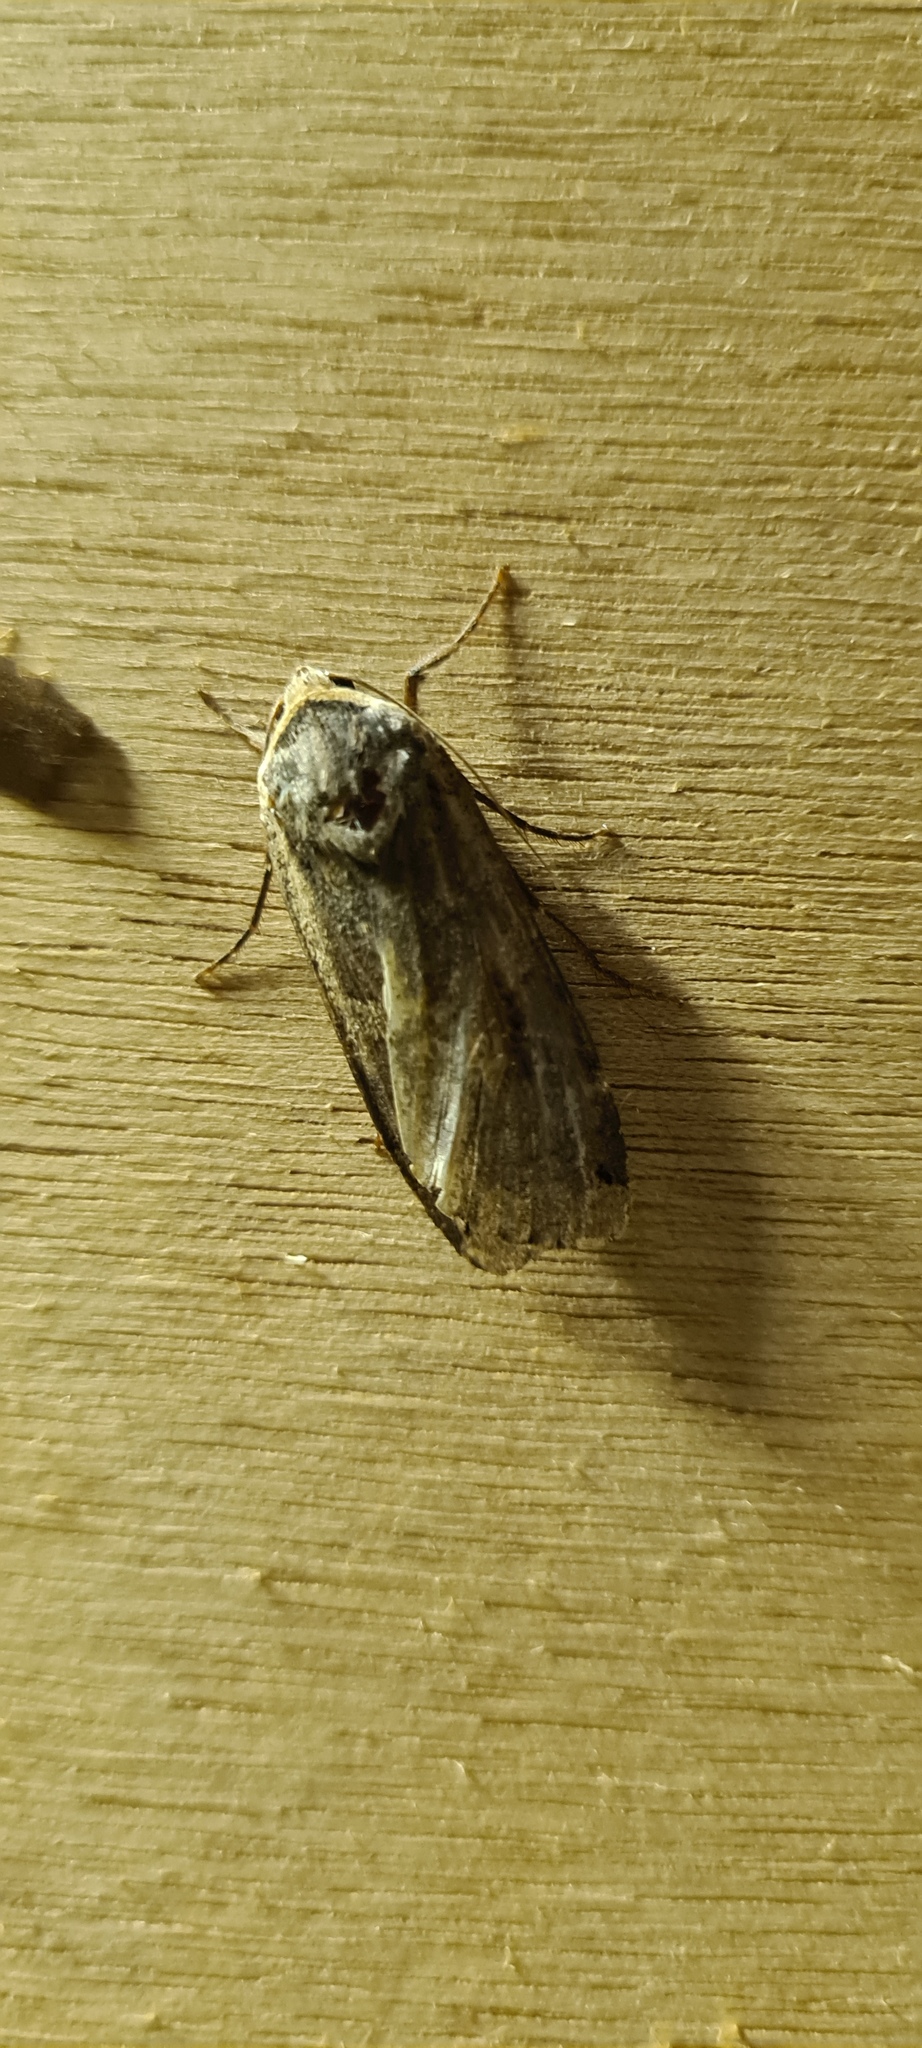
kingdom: Animalia
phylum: Arthropoda
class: Insecta
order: Lepidoptera
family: Noctuidae
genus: Noctua
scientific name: Noctua pronuba
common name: Large yellow underwing
